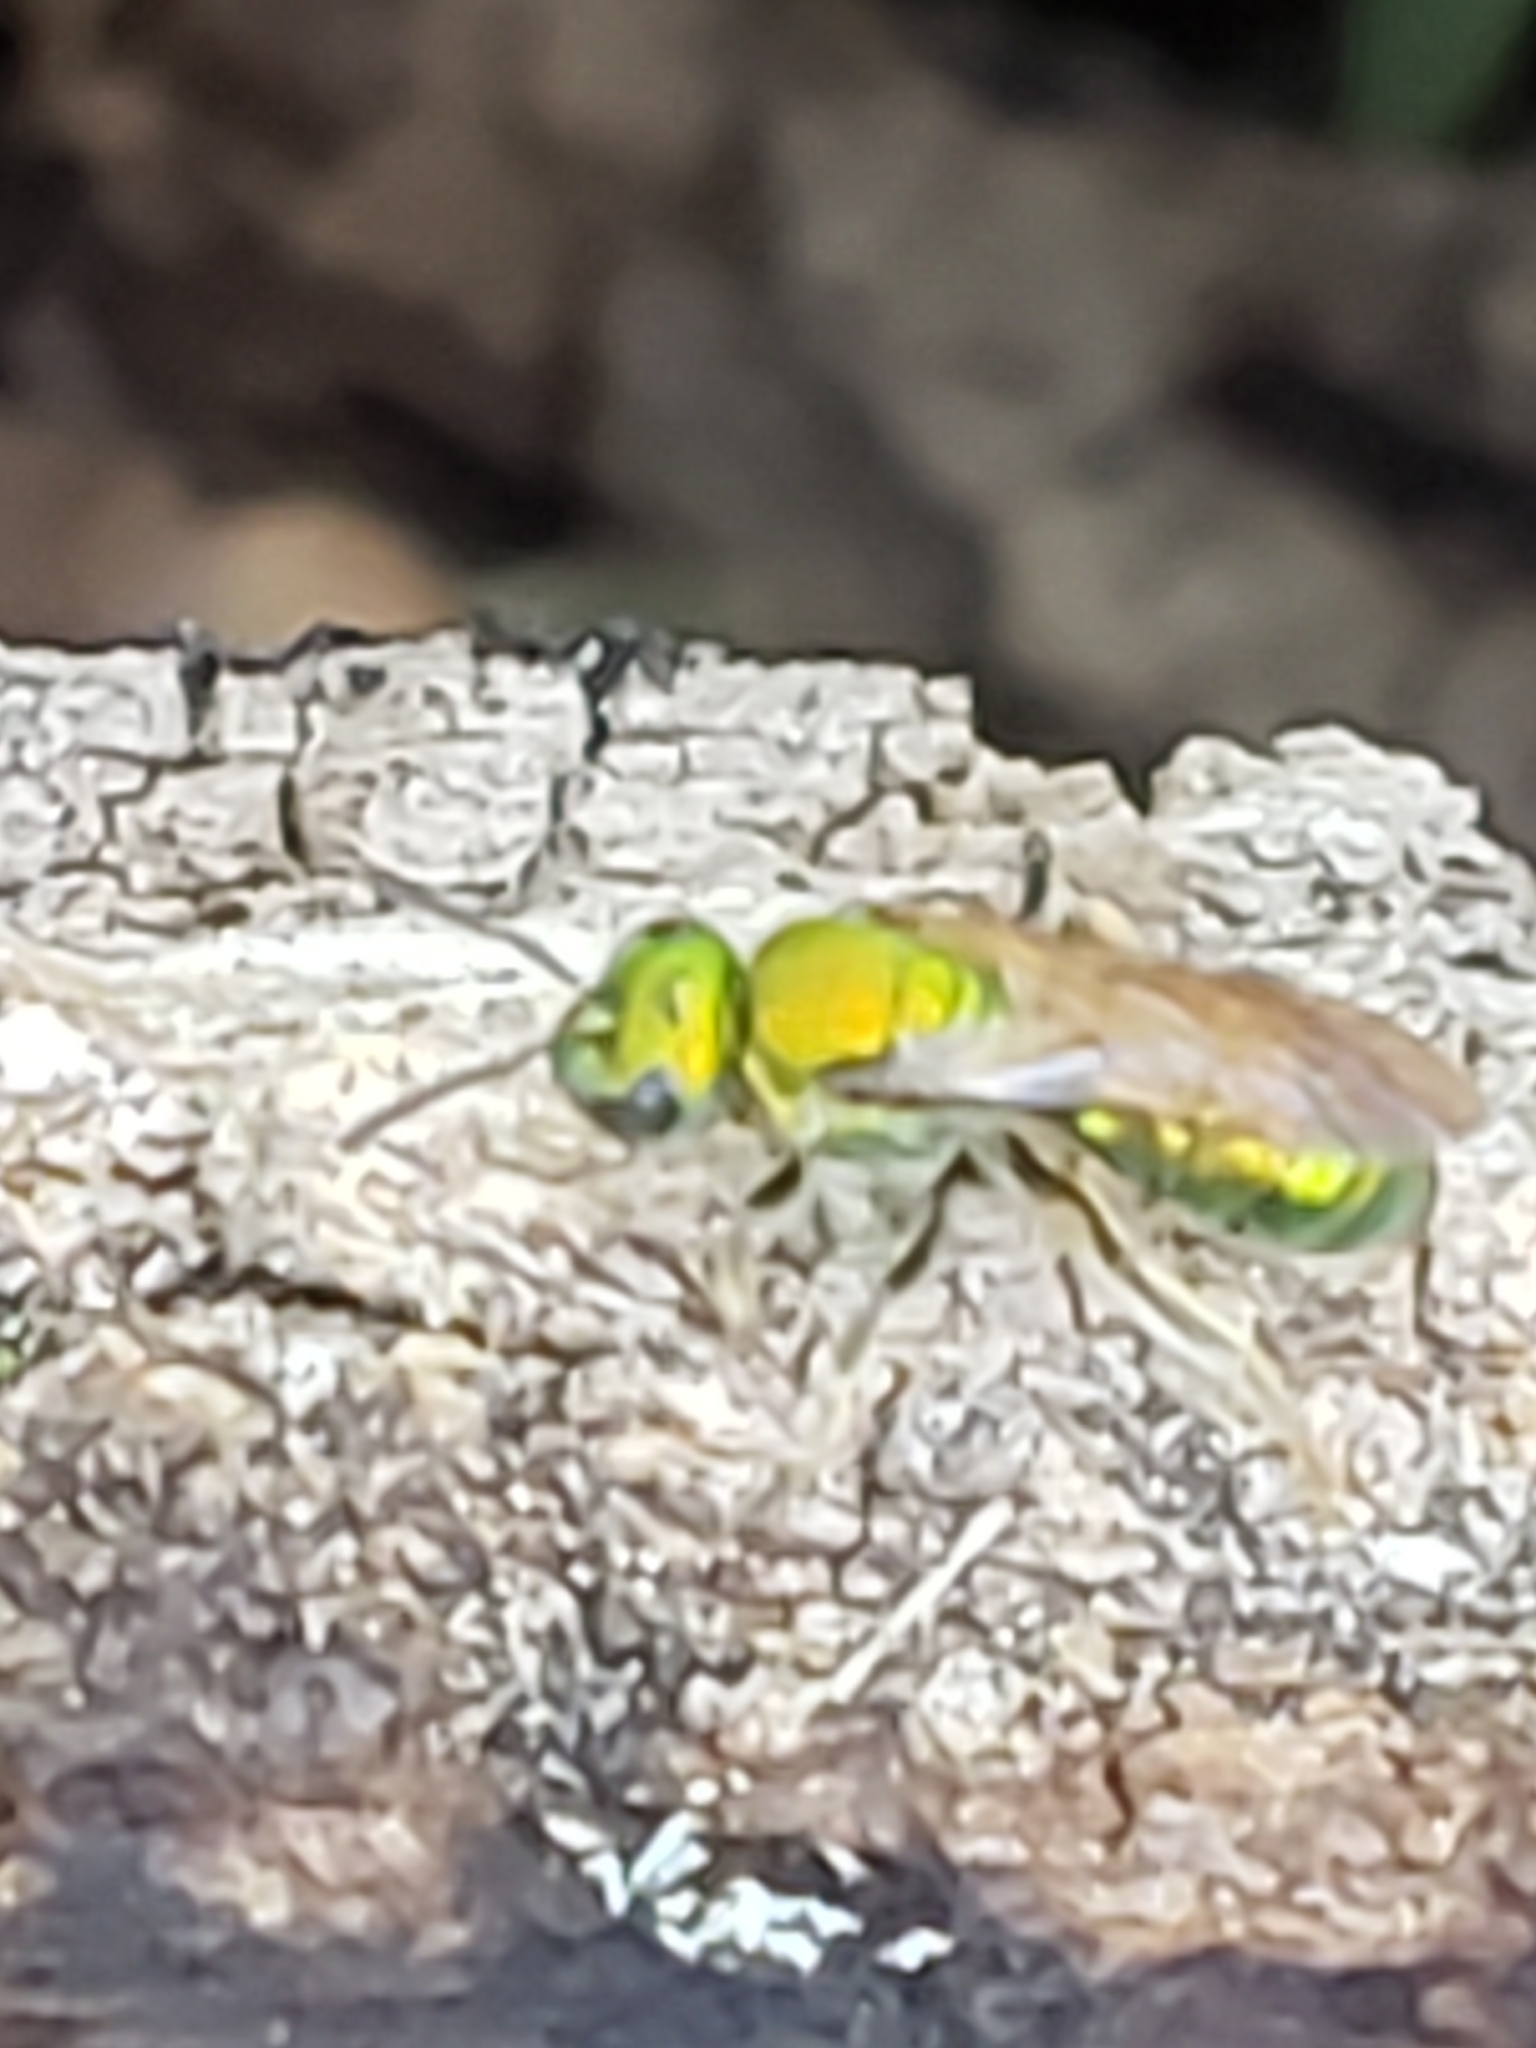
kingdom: Animalia
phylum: Arthropoda
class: Insecta
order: Hymenoptera
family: Halictidae
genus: Augochlora
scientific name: Augochlora pura
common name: Pure green sweat bee
